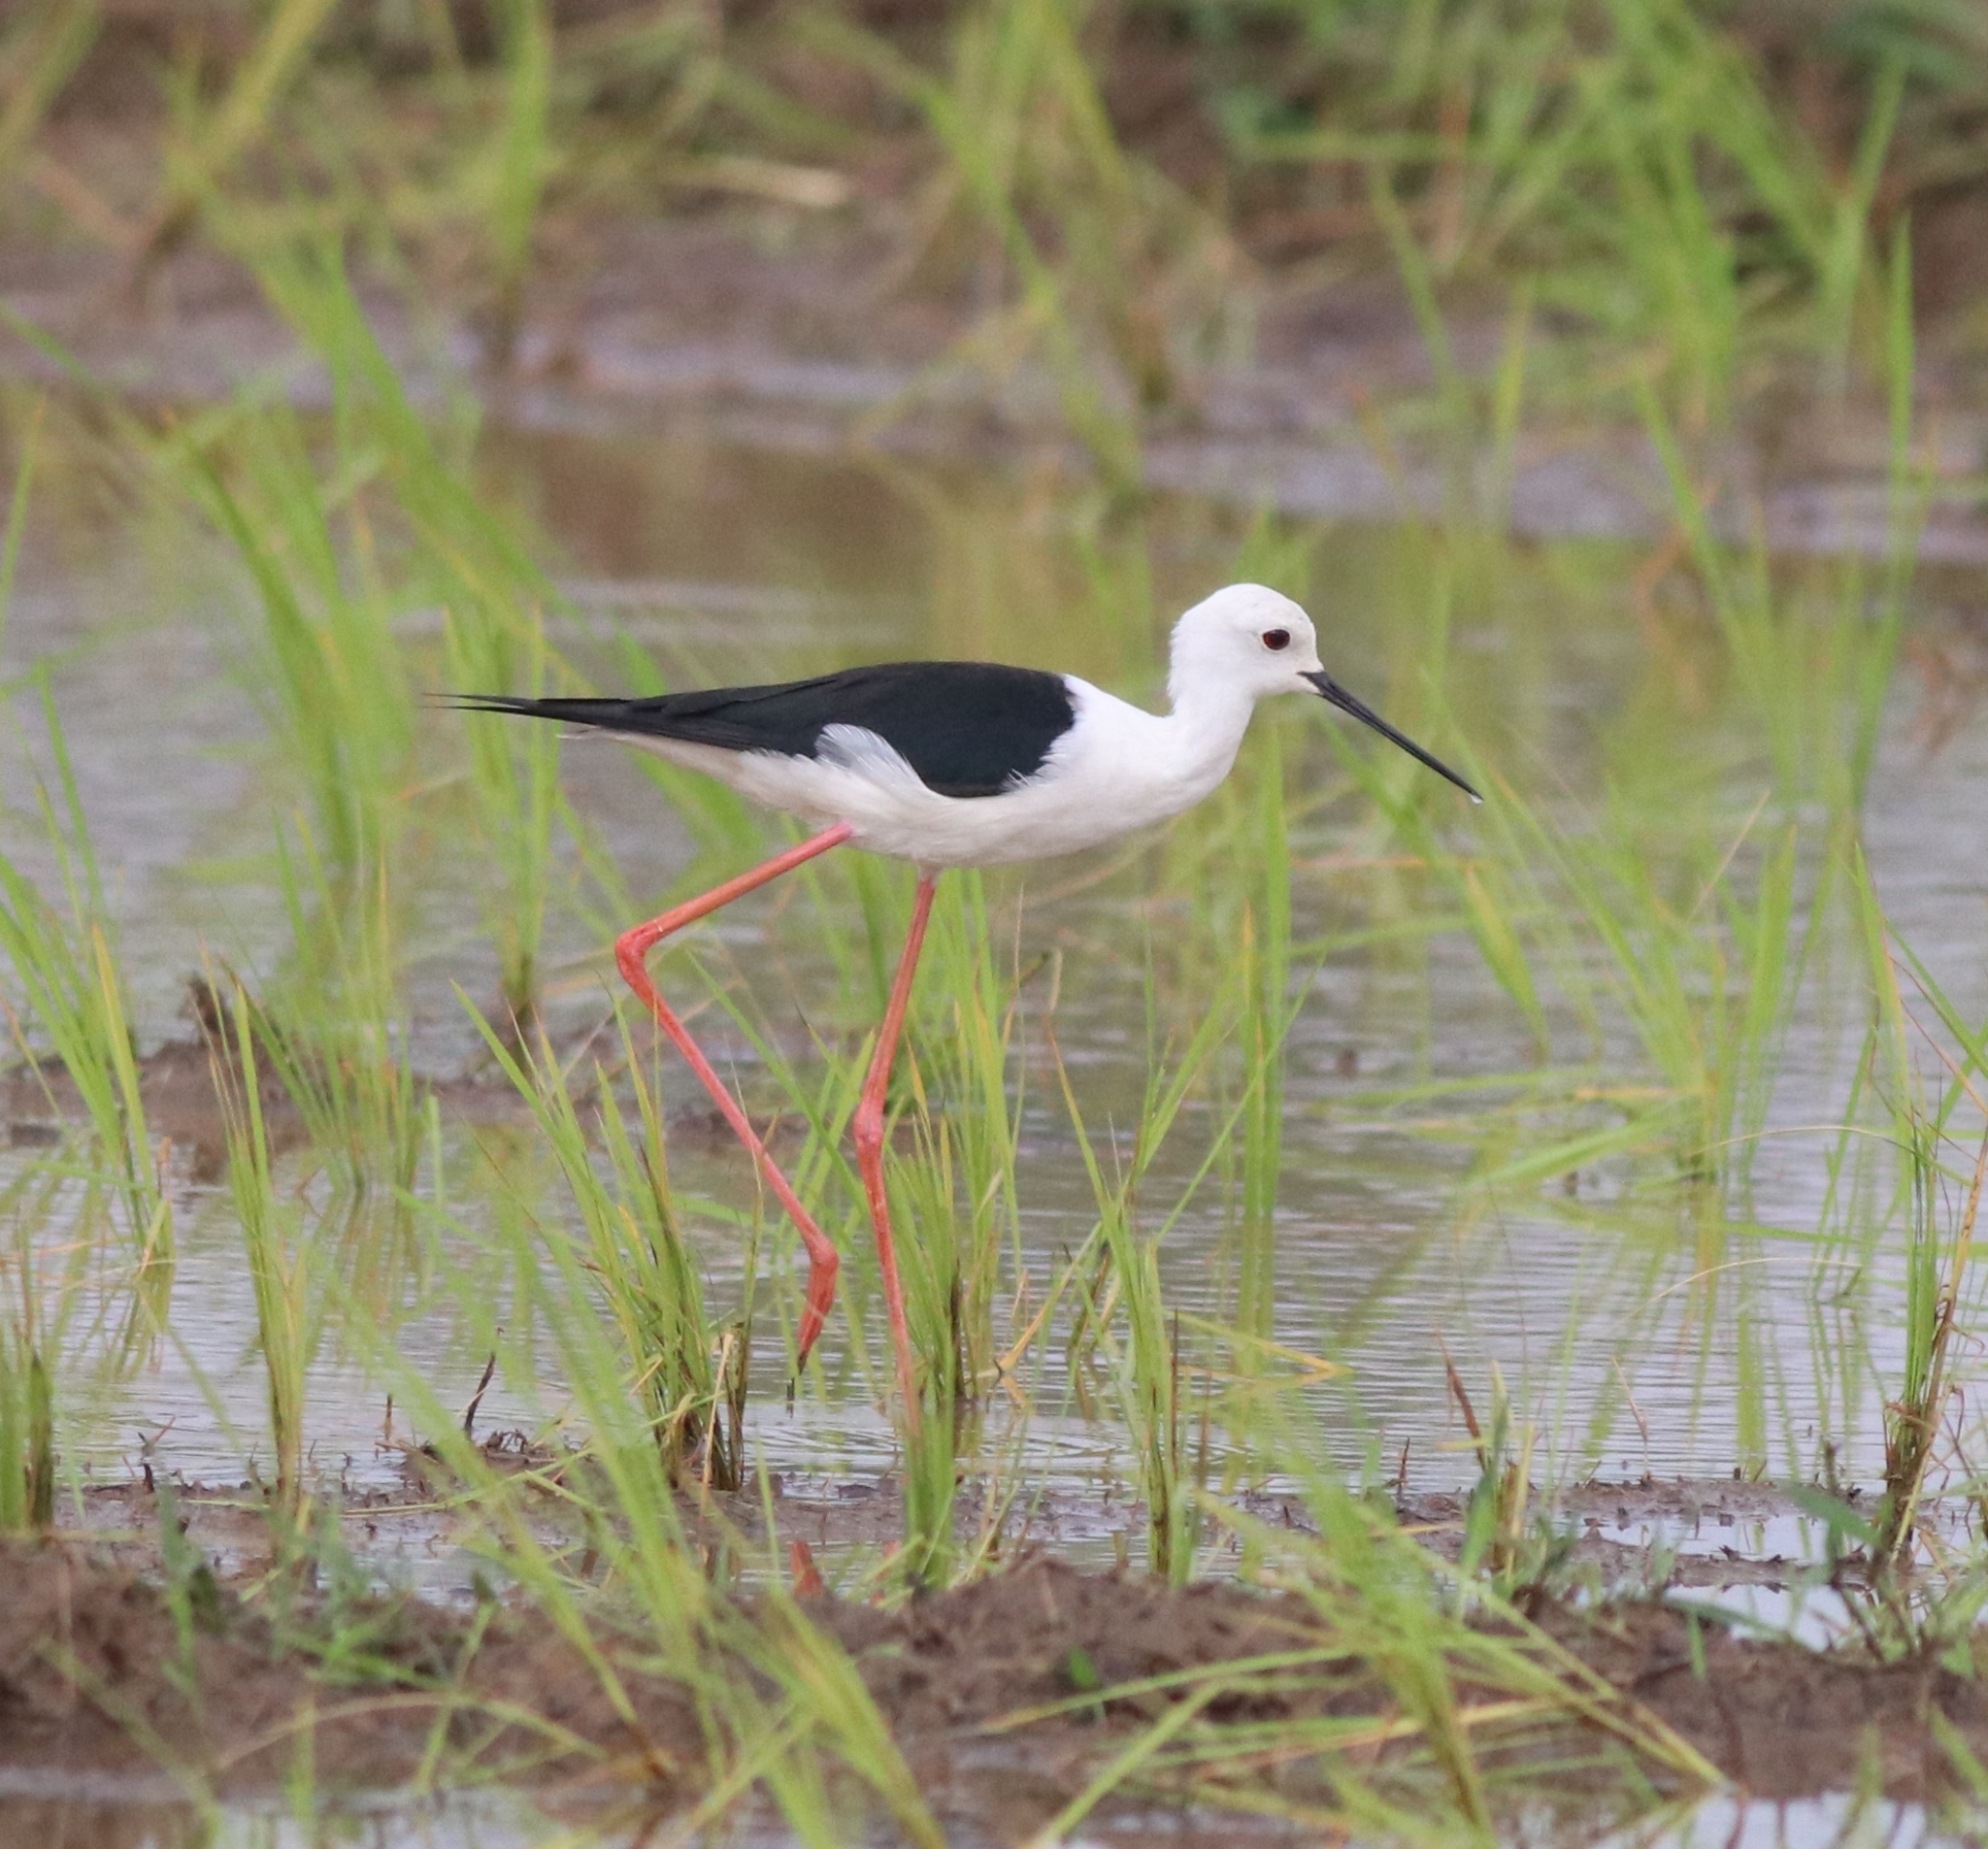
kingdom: Animalia
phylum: Chordata
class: Aves
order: Charadriiformes
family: Recurvirostridae
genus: Himantopus
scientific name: Himantopus himantopus
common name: Black-winged stilt
